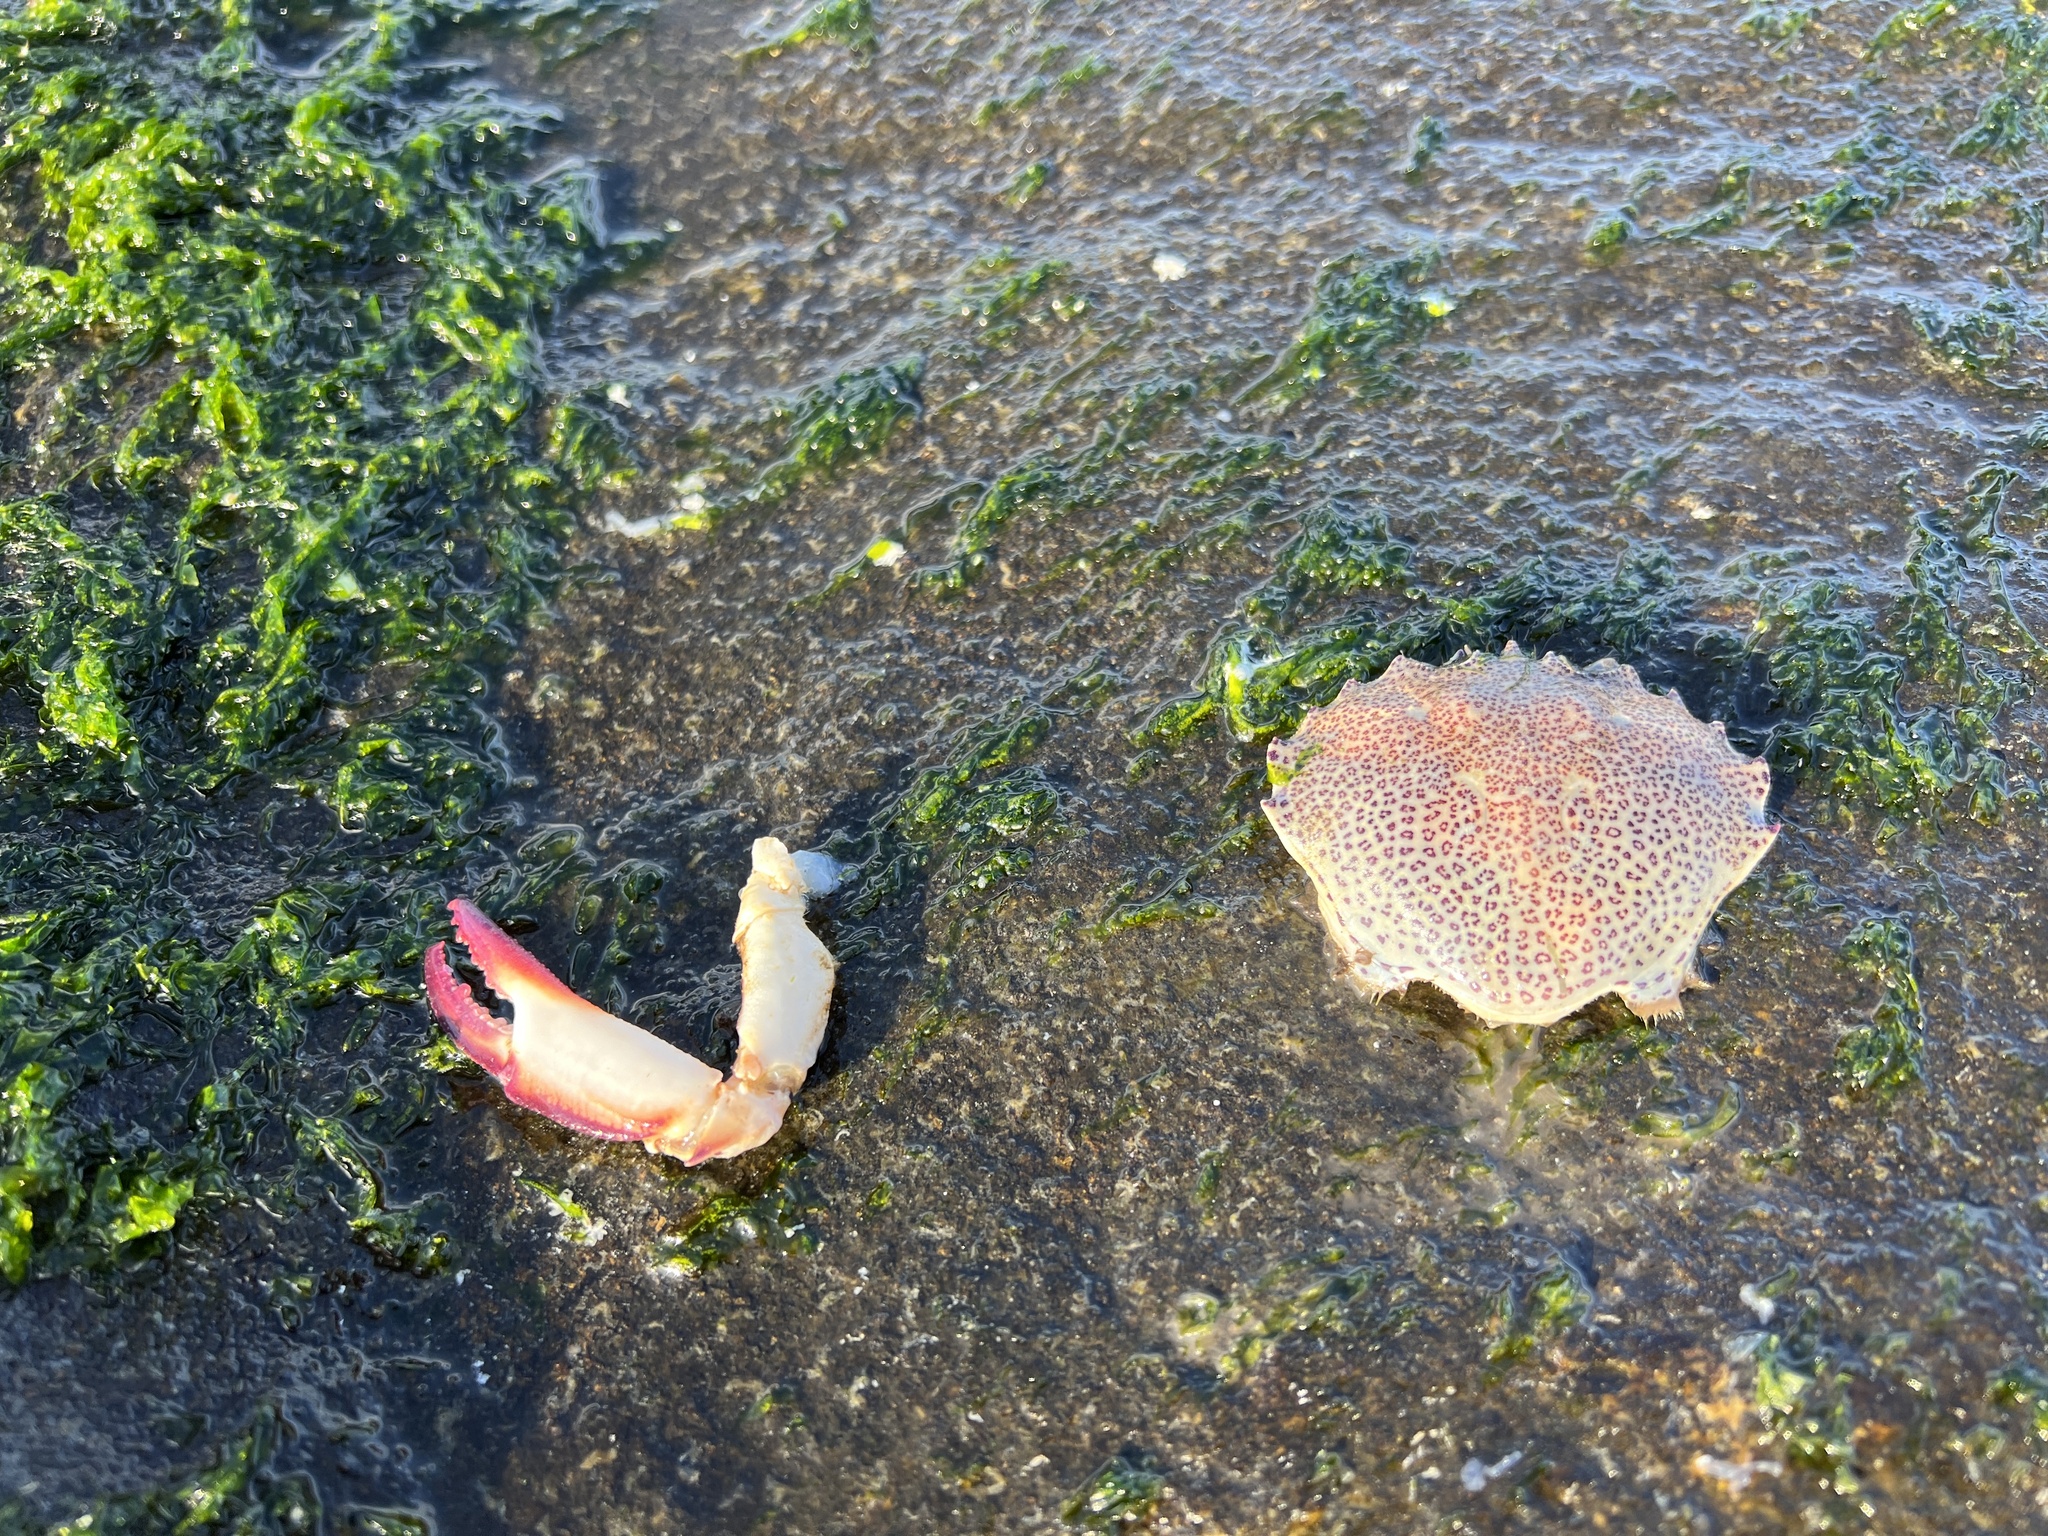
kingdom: Animalia
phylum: Arthropoda
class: Malacostraca
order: Decapoda
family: Ovalipidae
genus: Ovalipes
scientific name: Ovalipes ocellatus
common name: Lady crab
